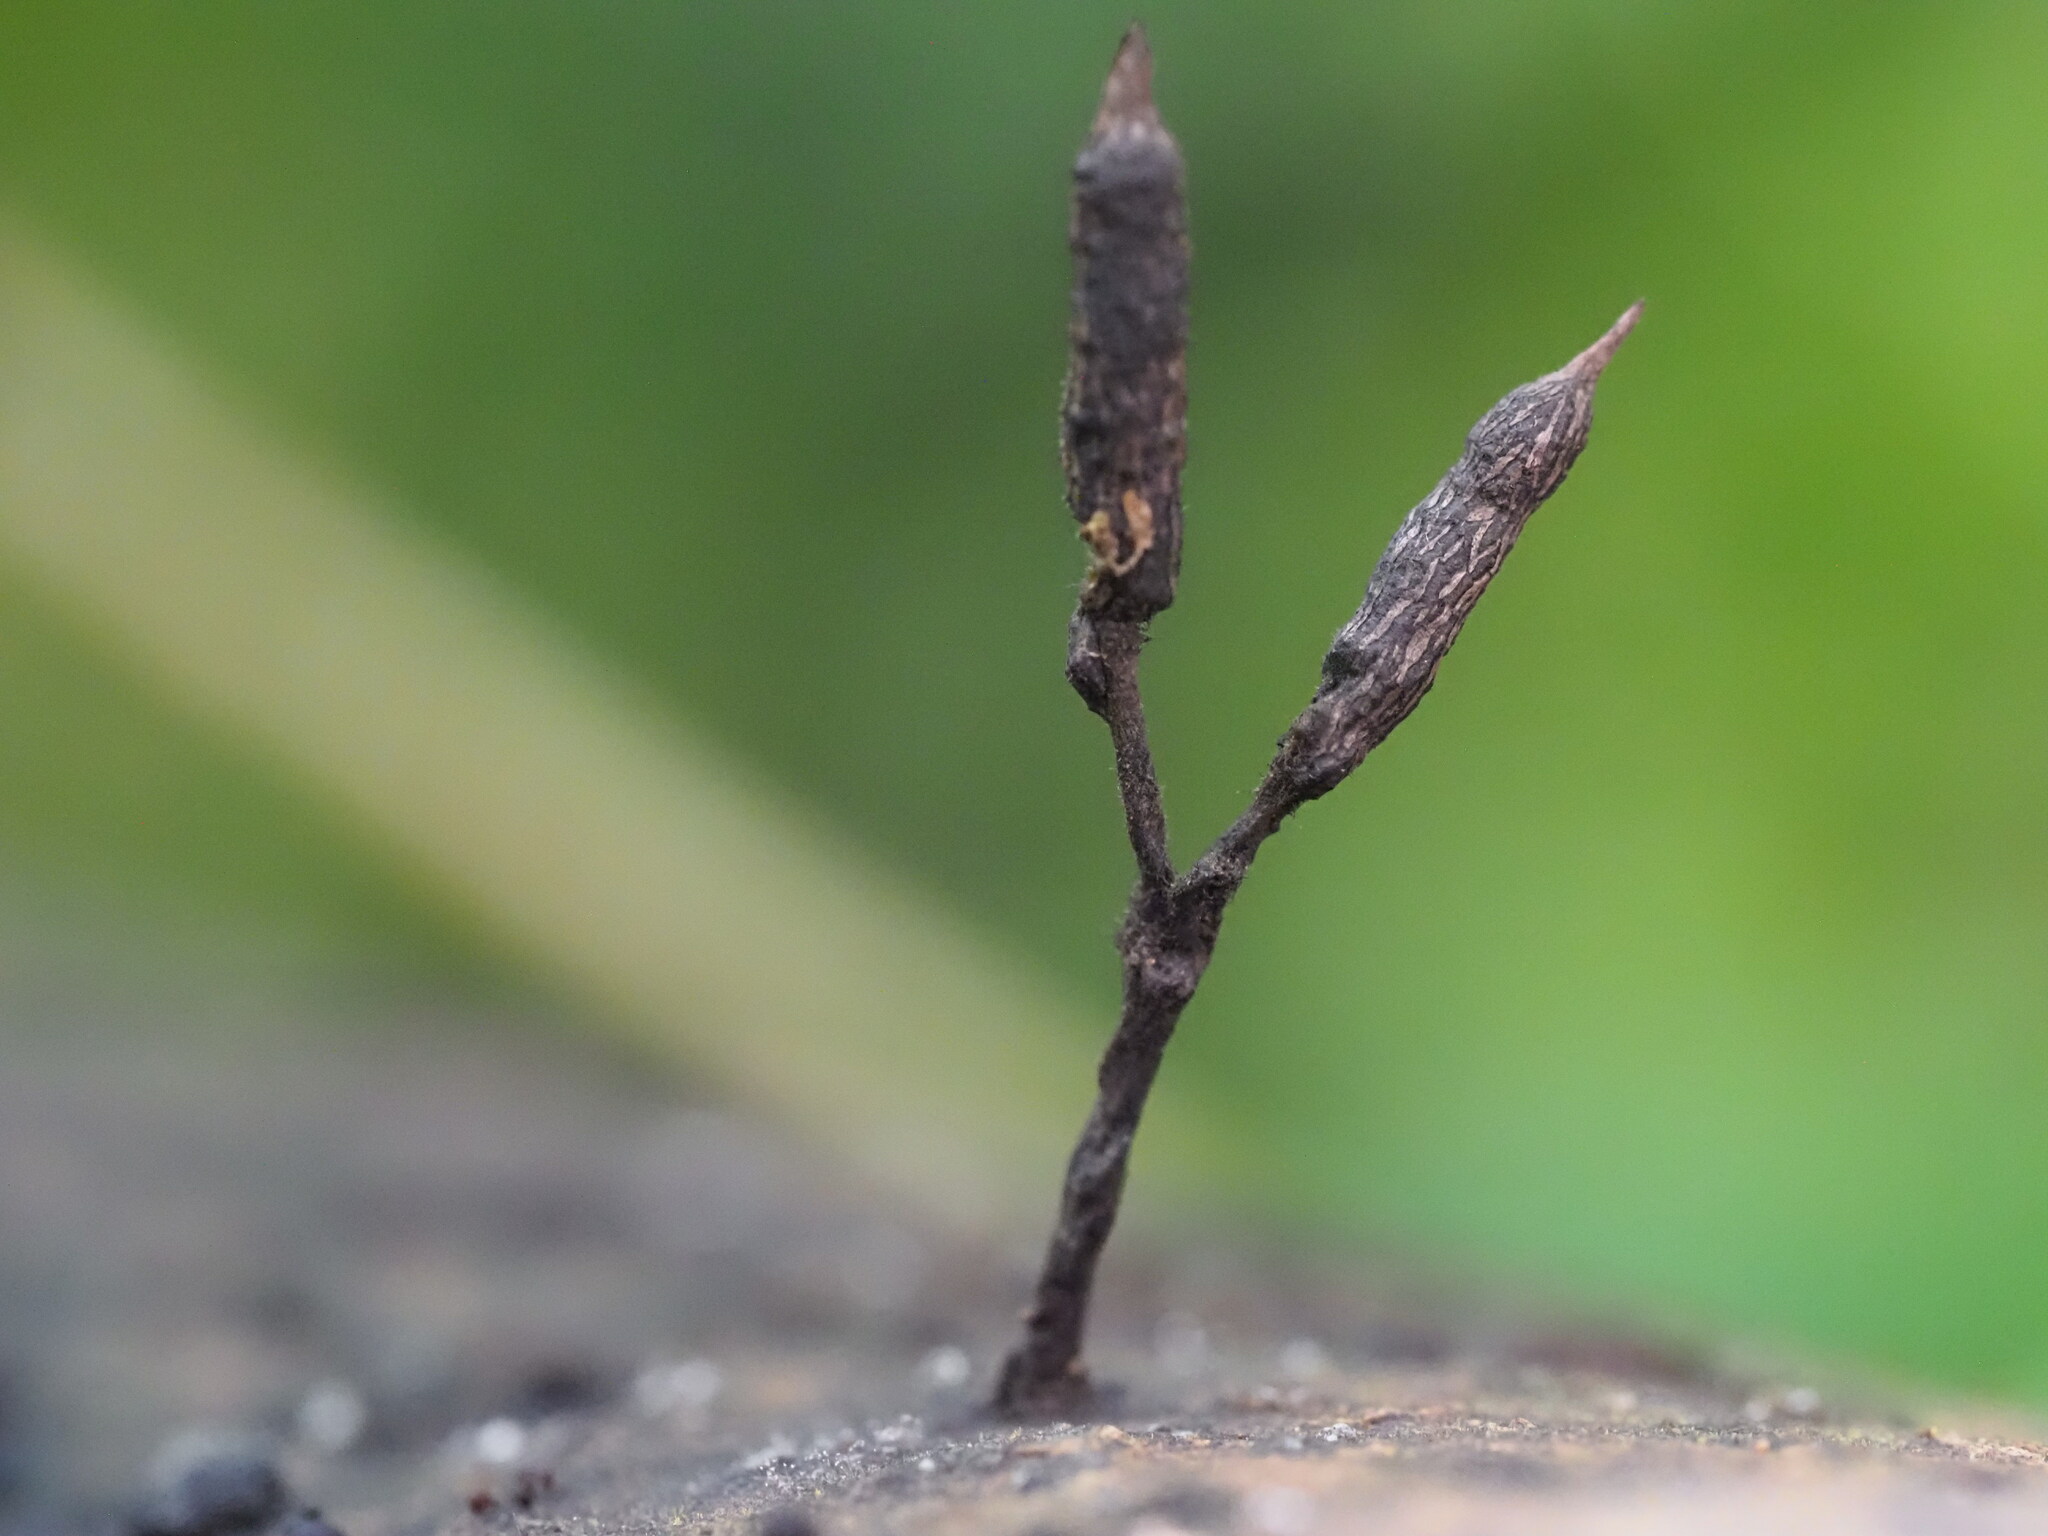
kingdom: Fungi
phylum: Ascomycota
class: Sordariomycetes
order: Xylariales
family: Xylariaceae
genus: Xylaria
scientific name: Xylaria apiculata
